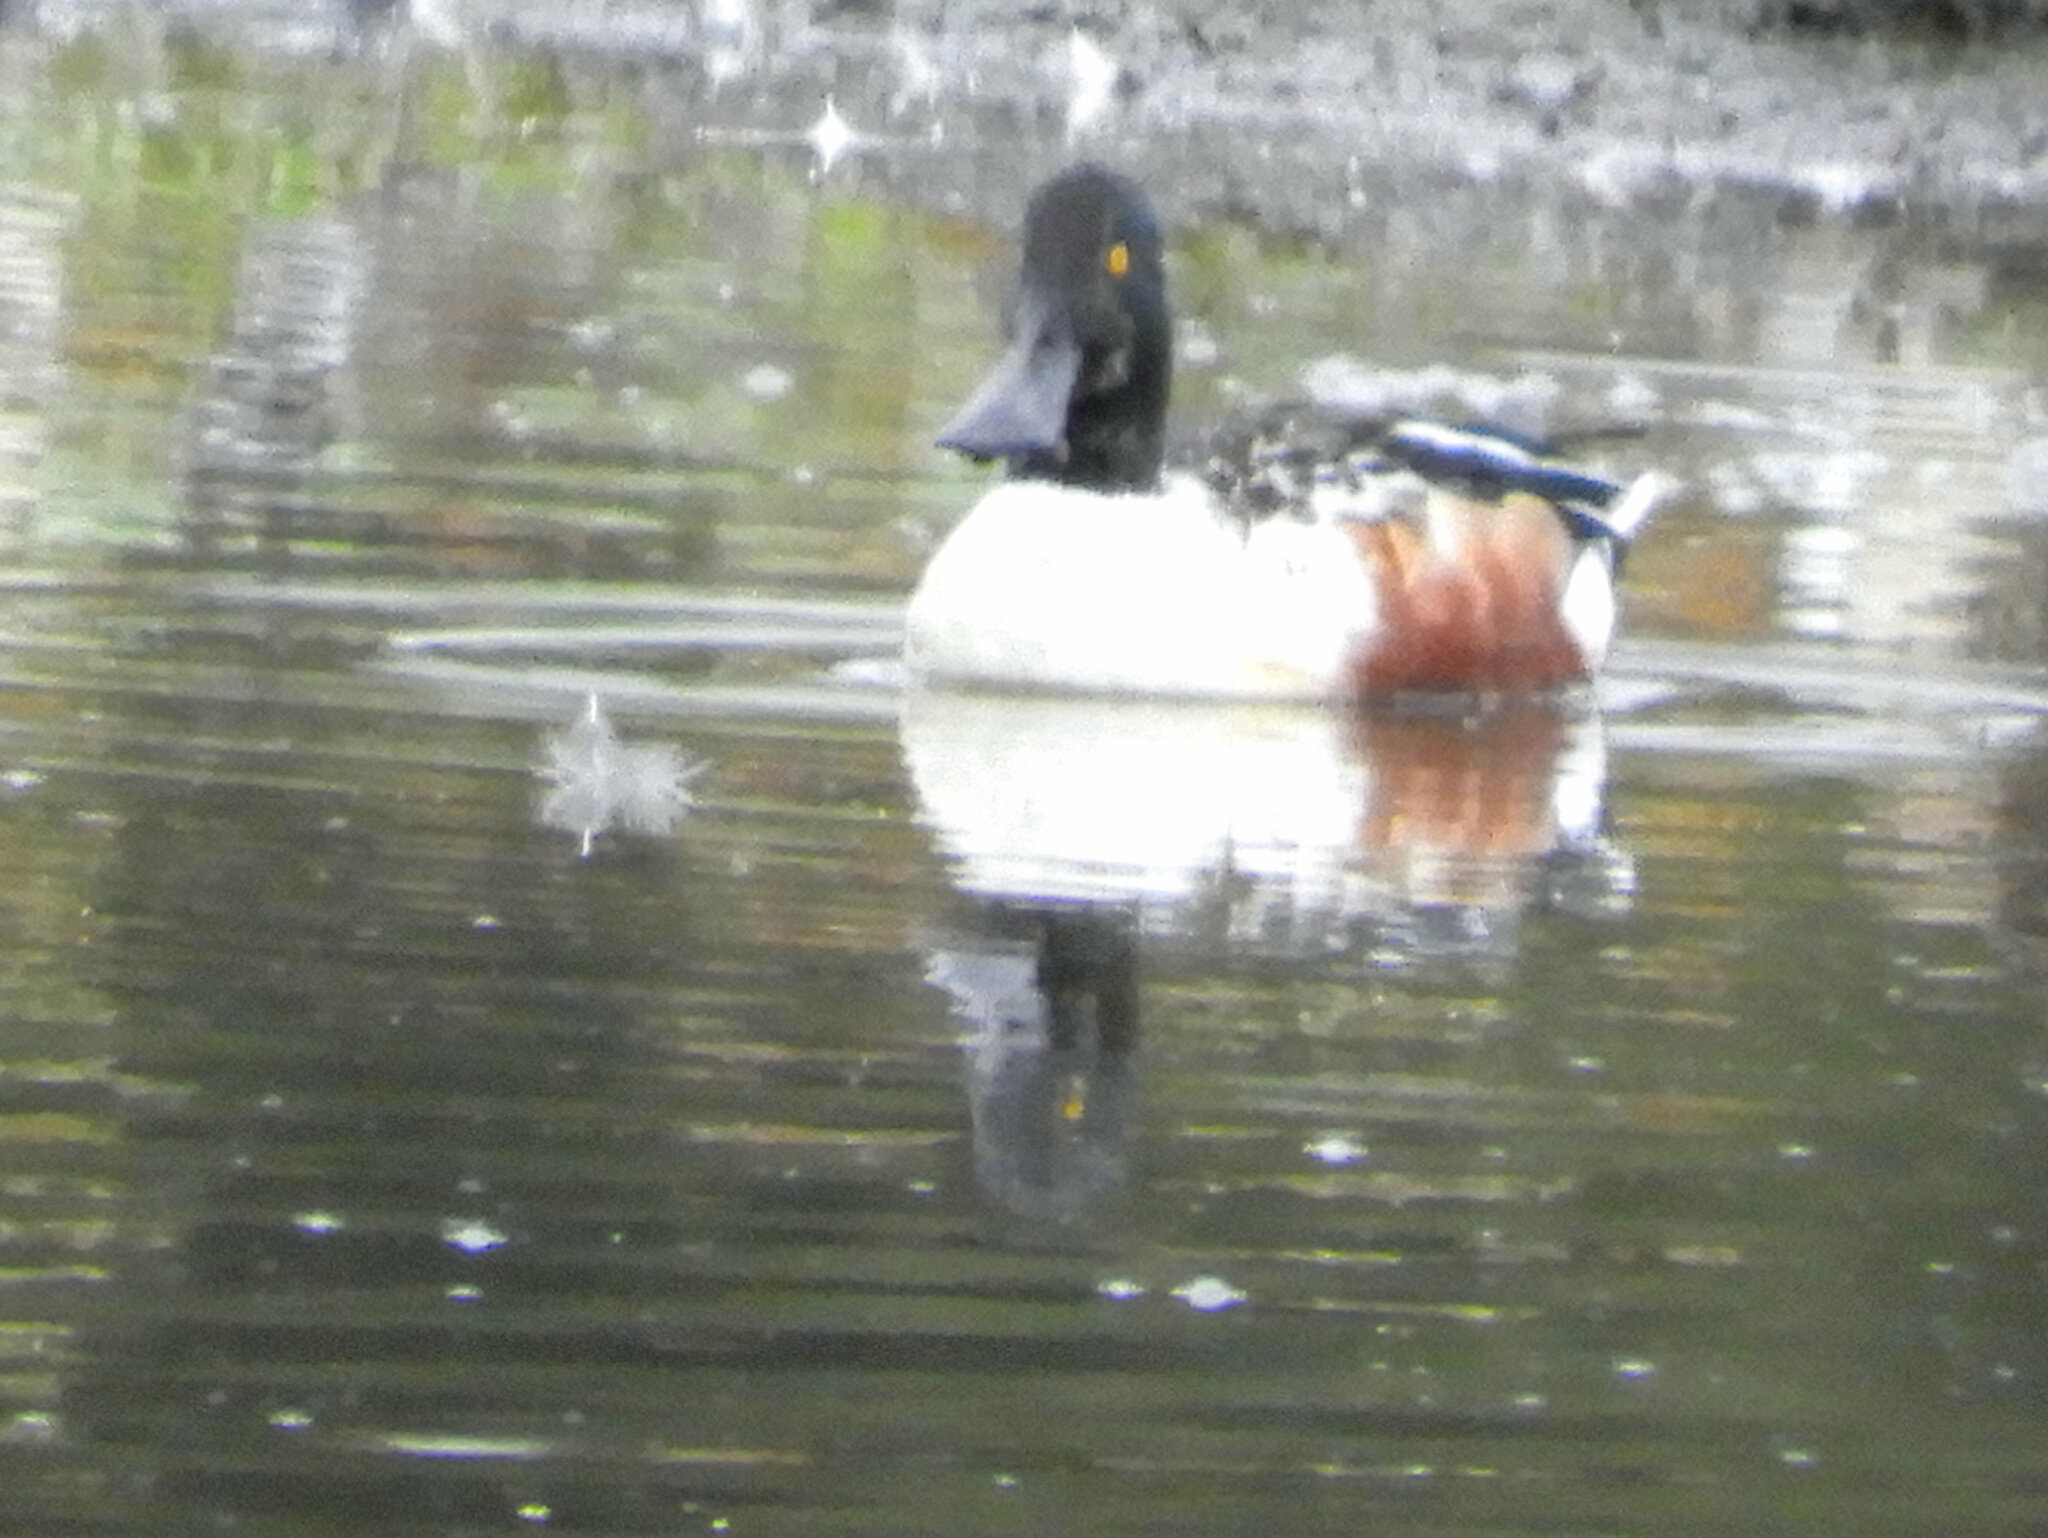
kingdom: Animalia
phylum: Chordata
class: Aves
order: Anseriformes
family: Anatidae
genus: Spatula
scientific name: Spatula clypeata
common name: Northern shoveler
